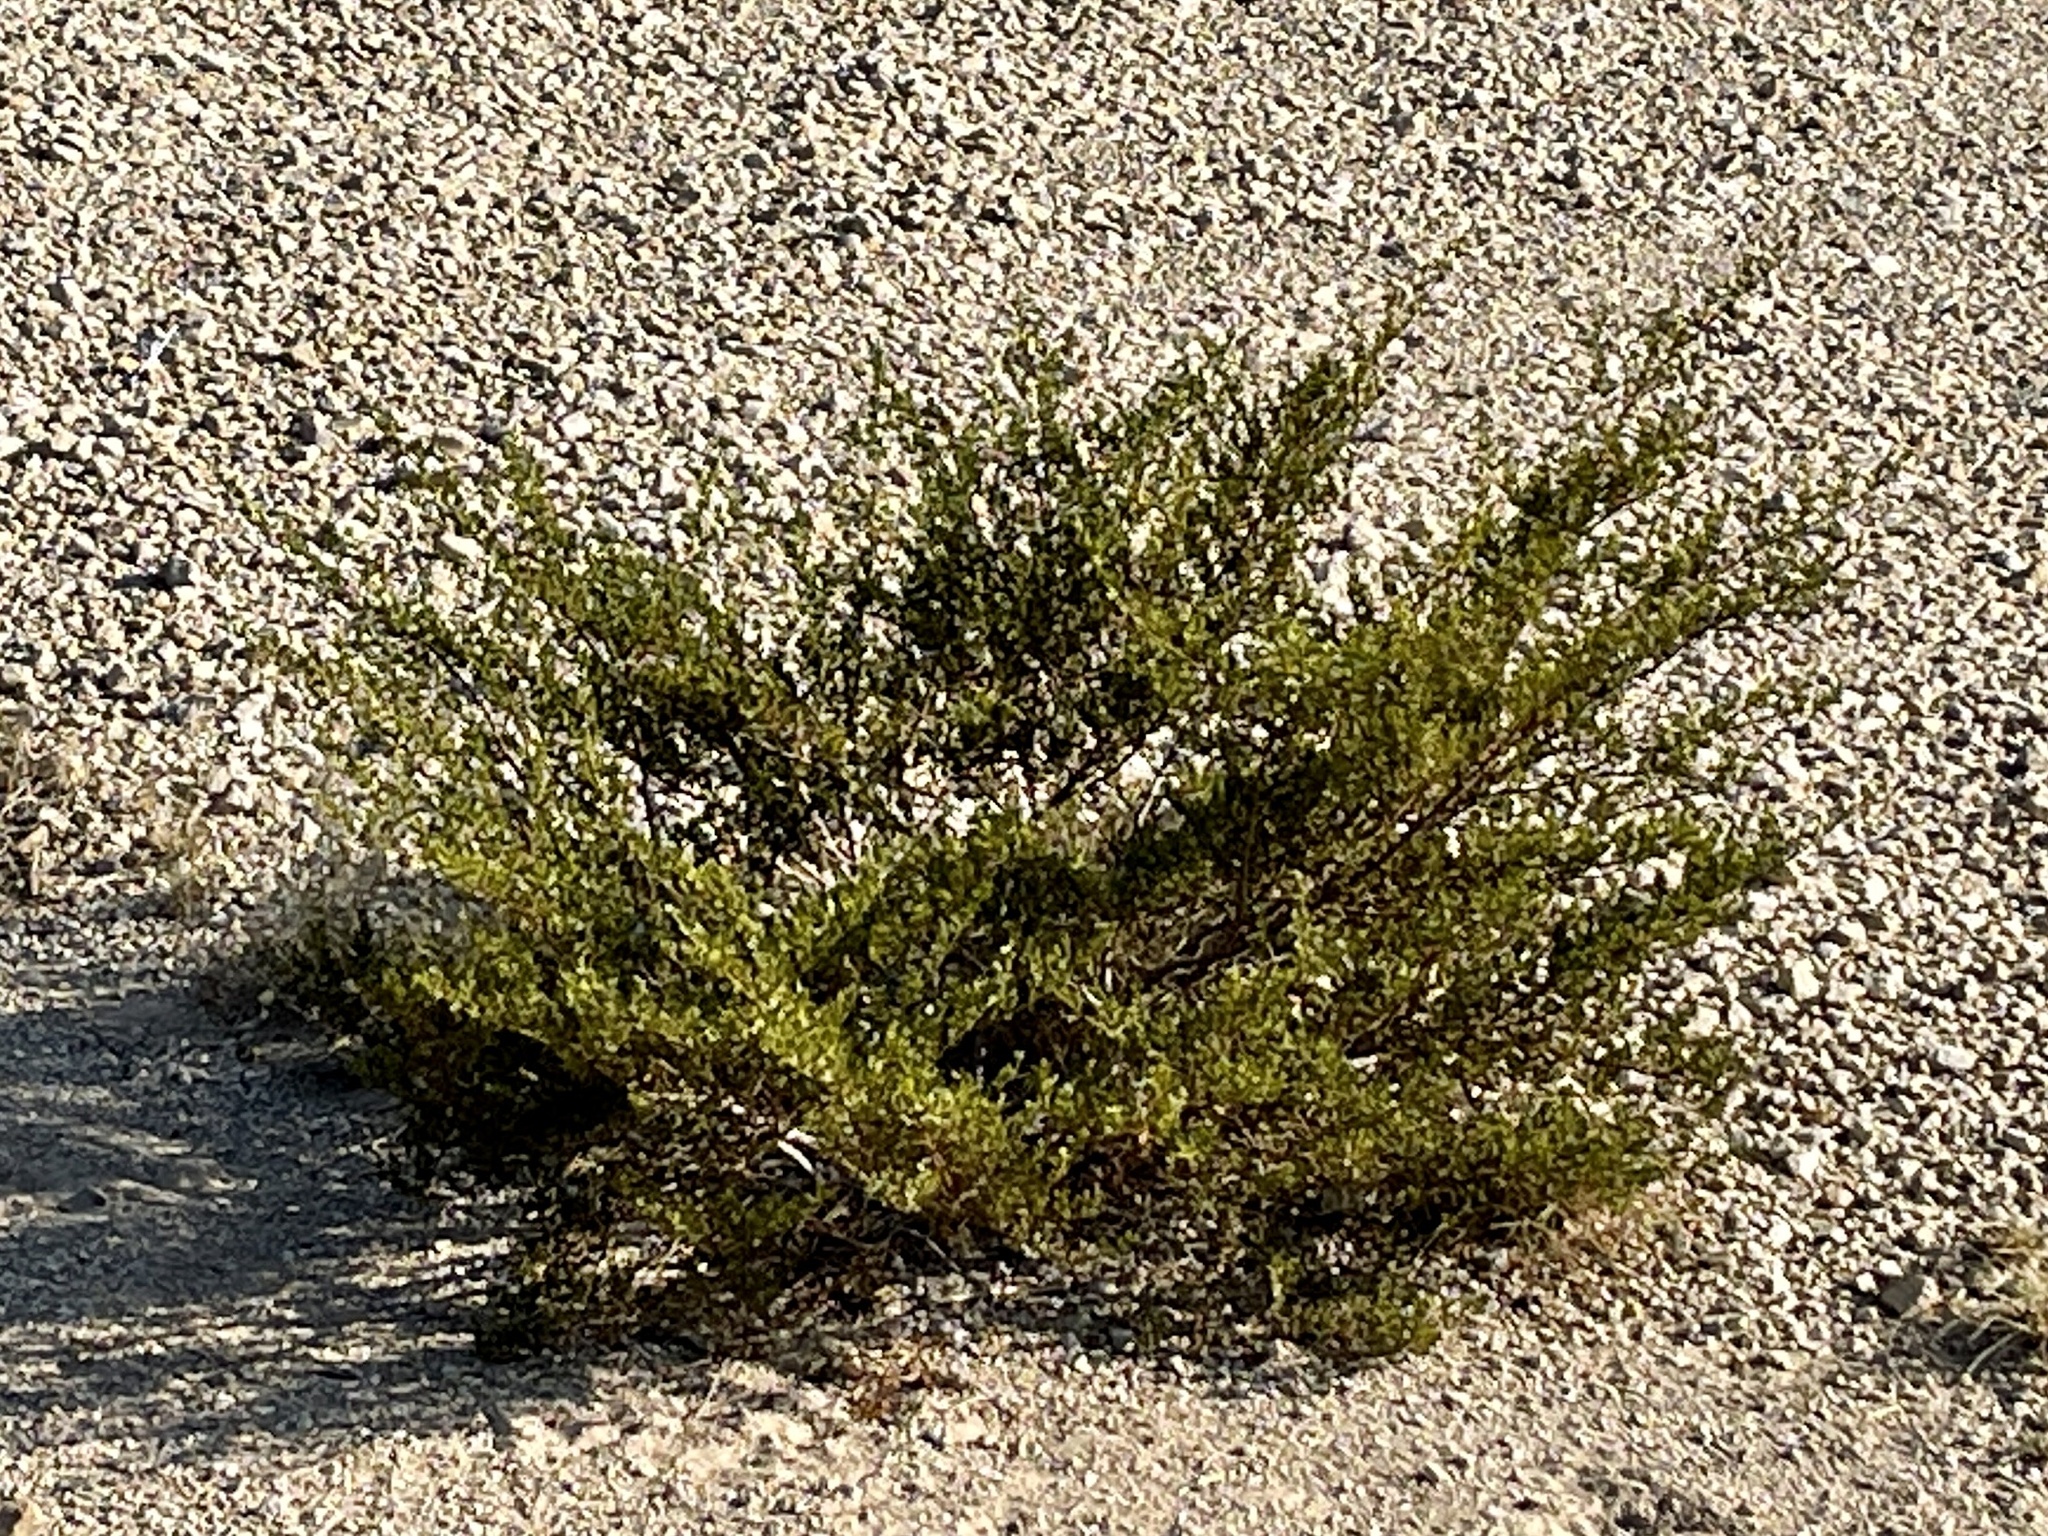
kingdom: Plantae
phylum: Tracheophyta
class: Magnoliopsida
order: Zygophyllales
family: Zygophyllaceae
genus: Larrea
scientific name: Larrea tridentata
